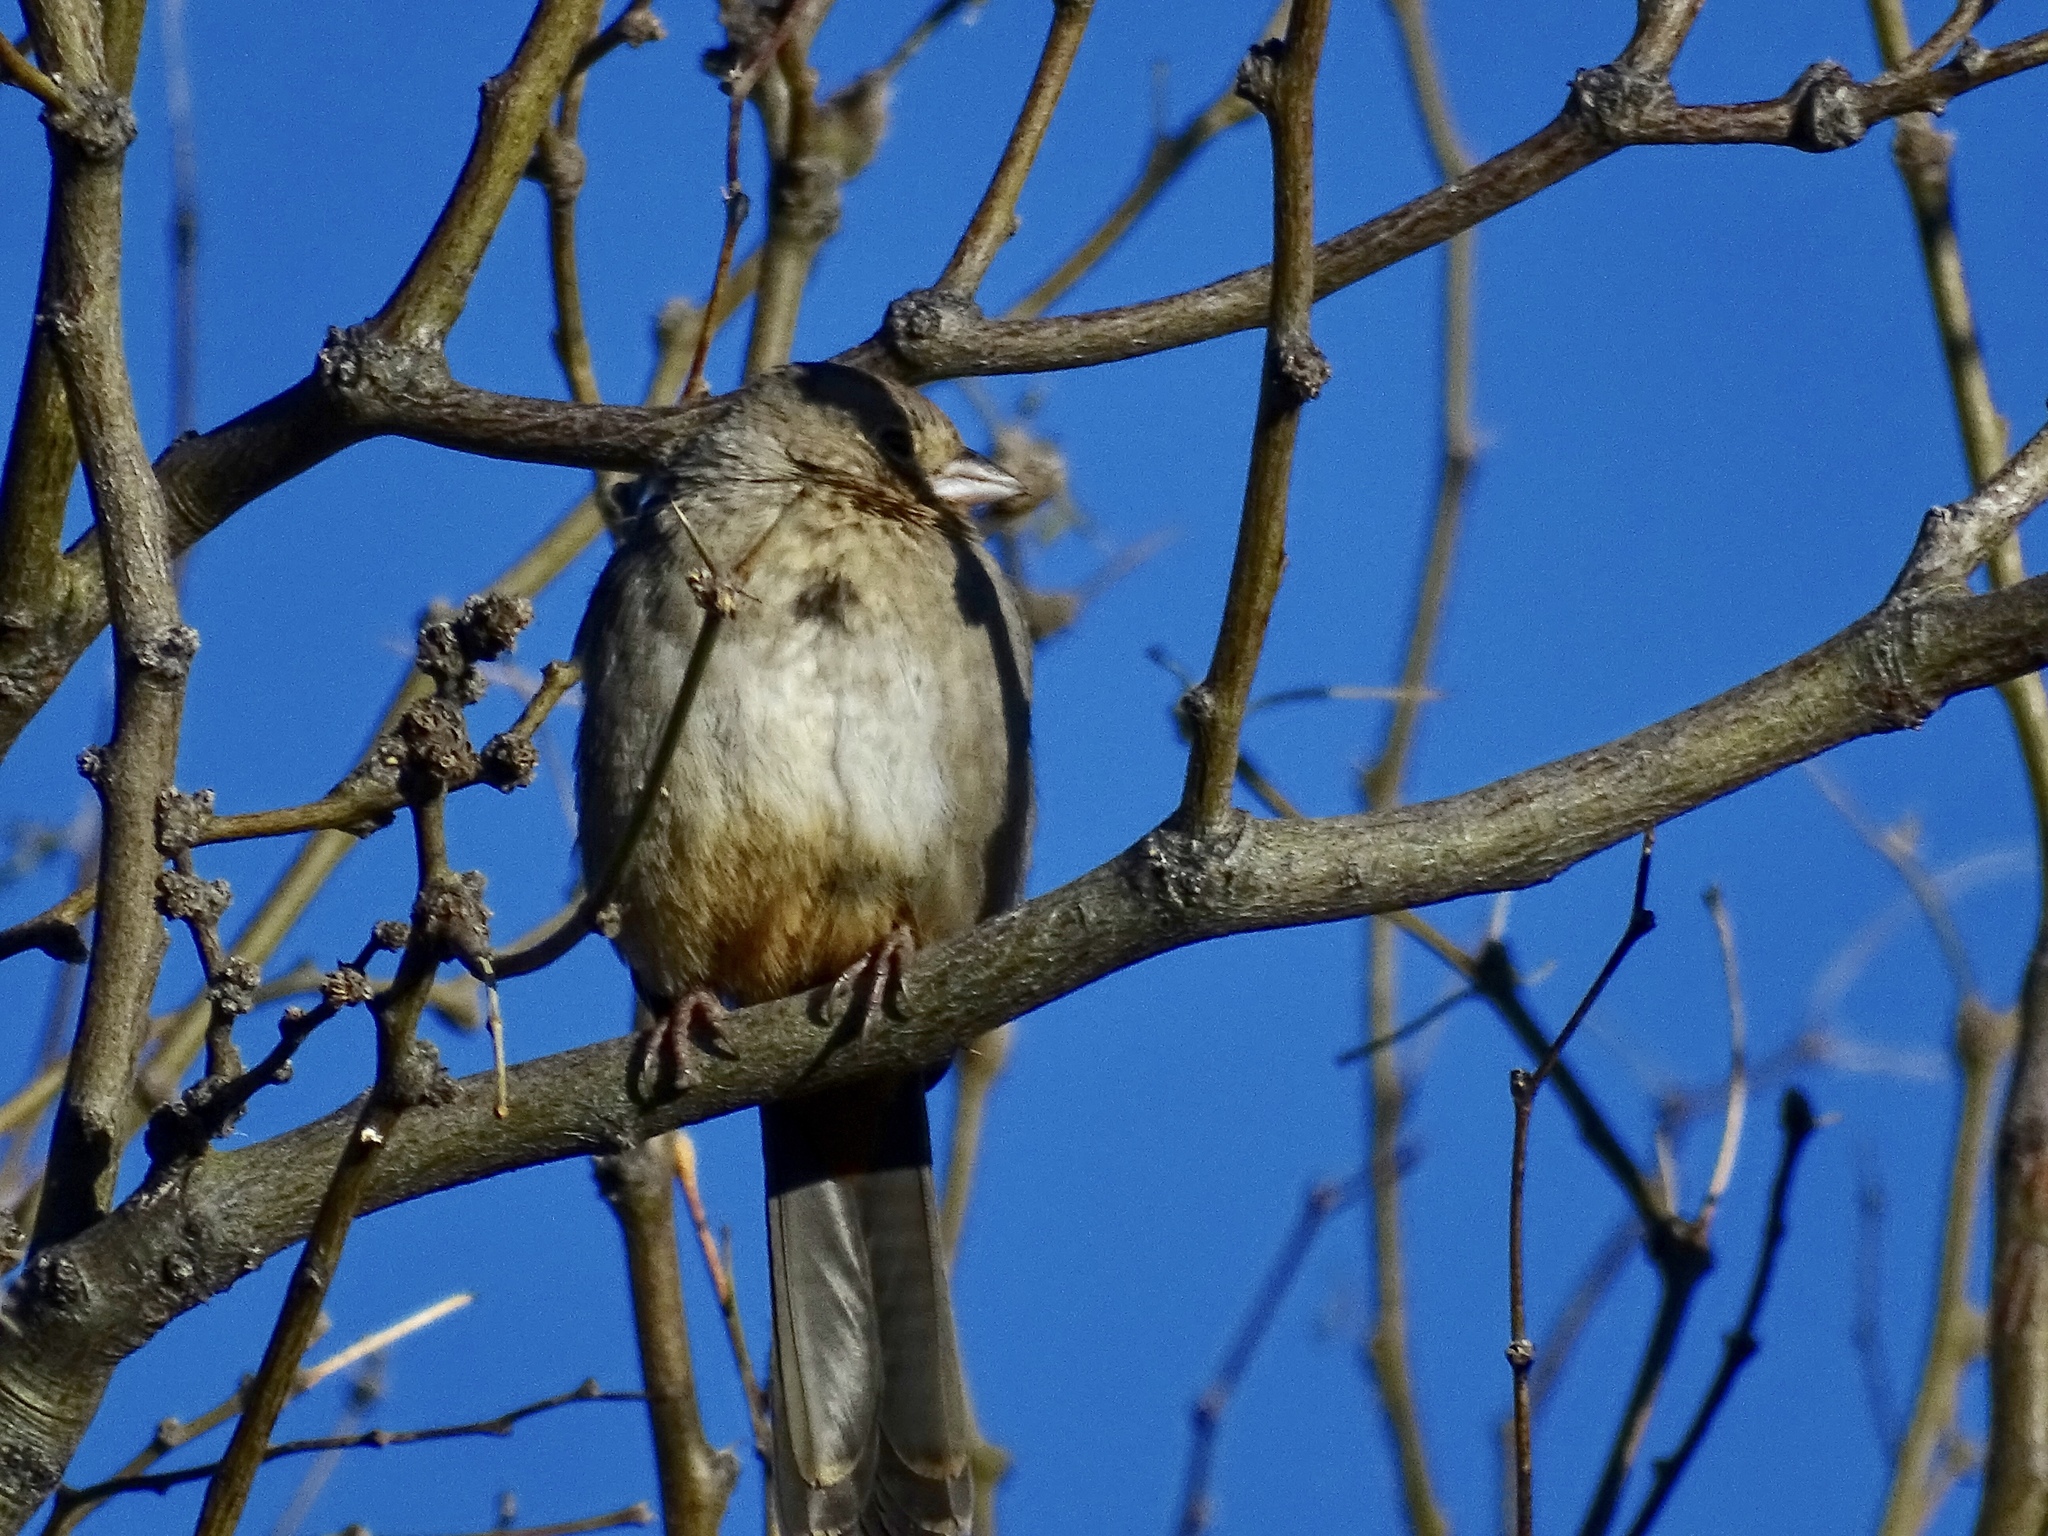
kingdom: Animalia
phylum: Chordata
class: Aves
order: Passeriformes
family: Passerellidae
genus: Melozone
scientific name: Melozone fusca
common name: Canyon towhee
